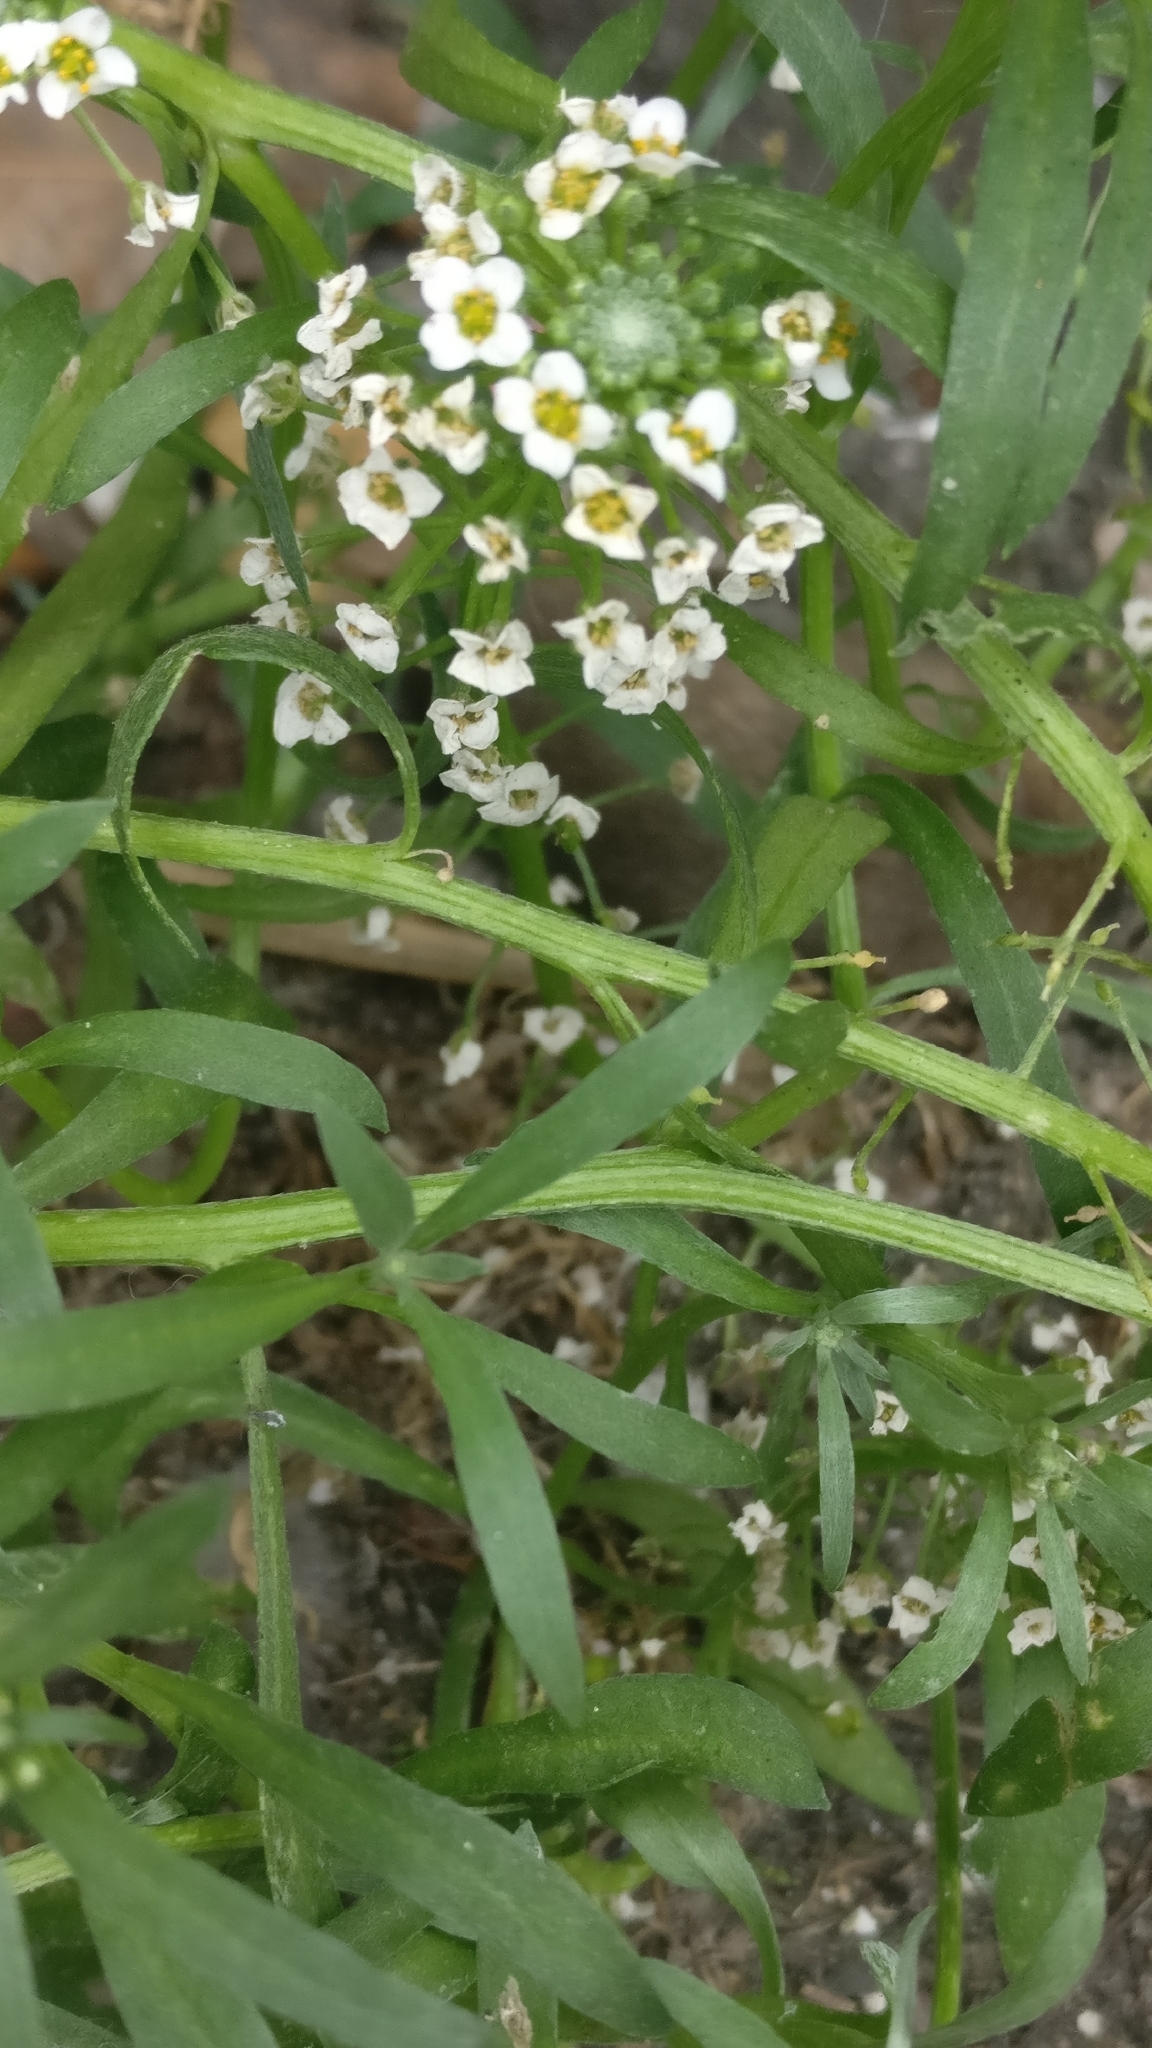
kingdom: Plantae
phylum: Tracheophyta
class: Magnoliopsida
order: Brassicales
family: Brassicaceae
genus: Lobularia
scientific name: Lobularia maritima
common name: Sweet alison
